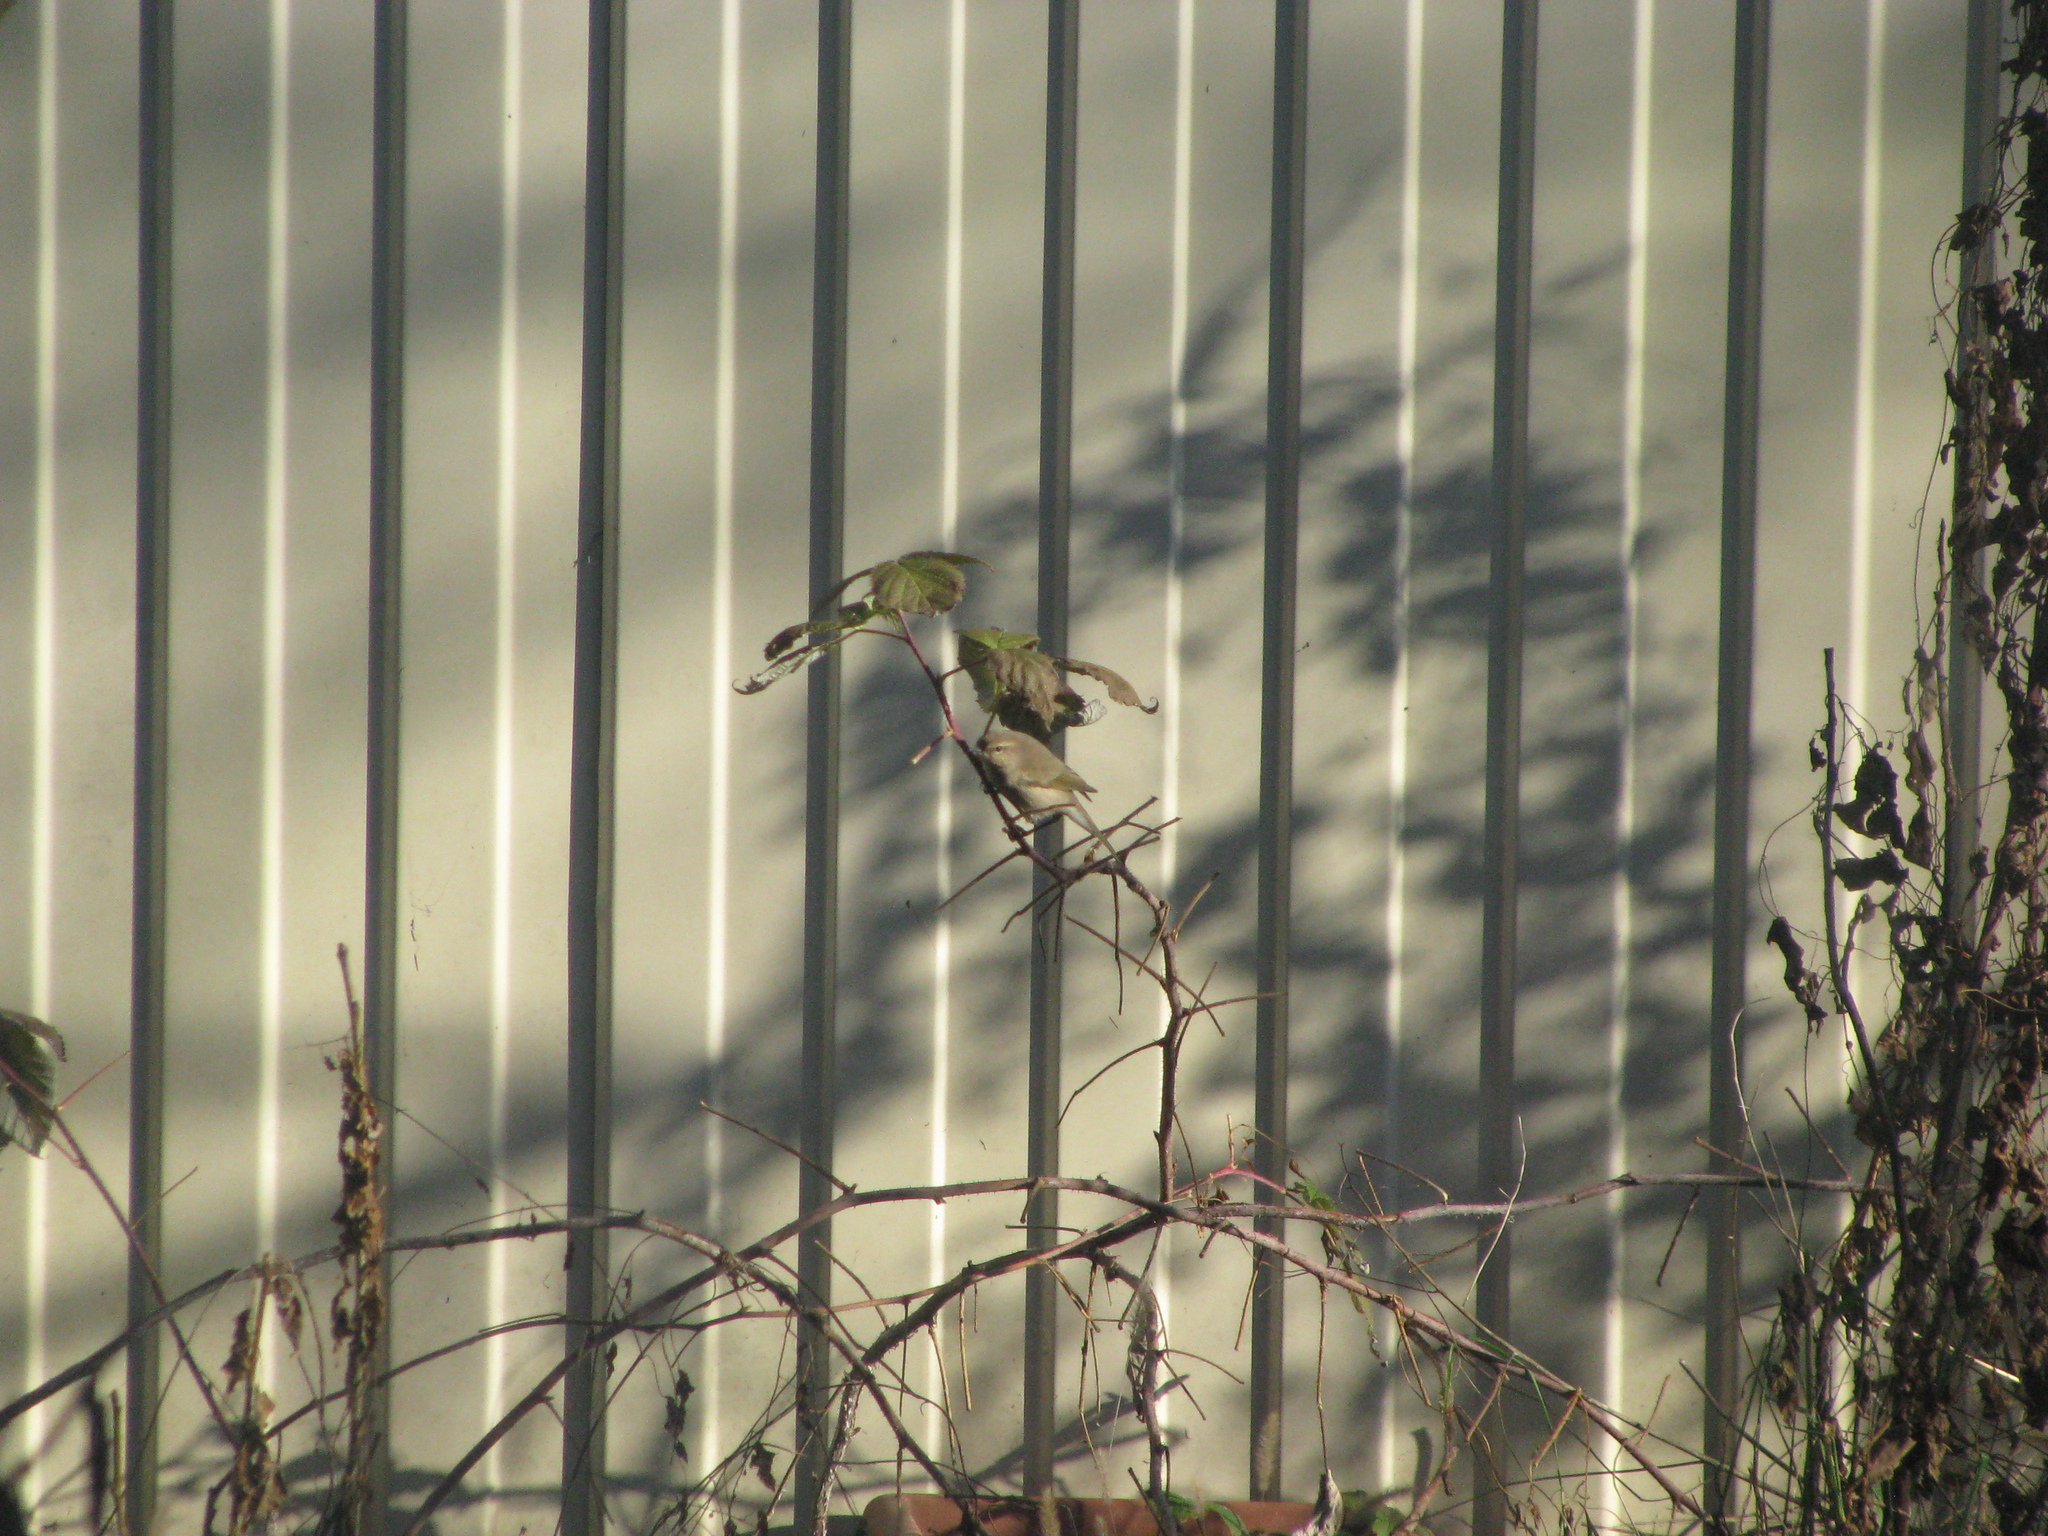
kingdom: Animalia
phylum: Chordata
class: Aves
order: Passeriformes
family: Phylloscopidae
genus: Phylloscopus
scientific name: Phylloscopus collybita
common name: Common chiffchaff
